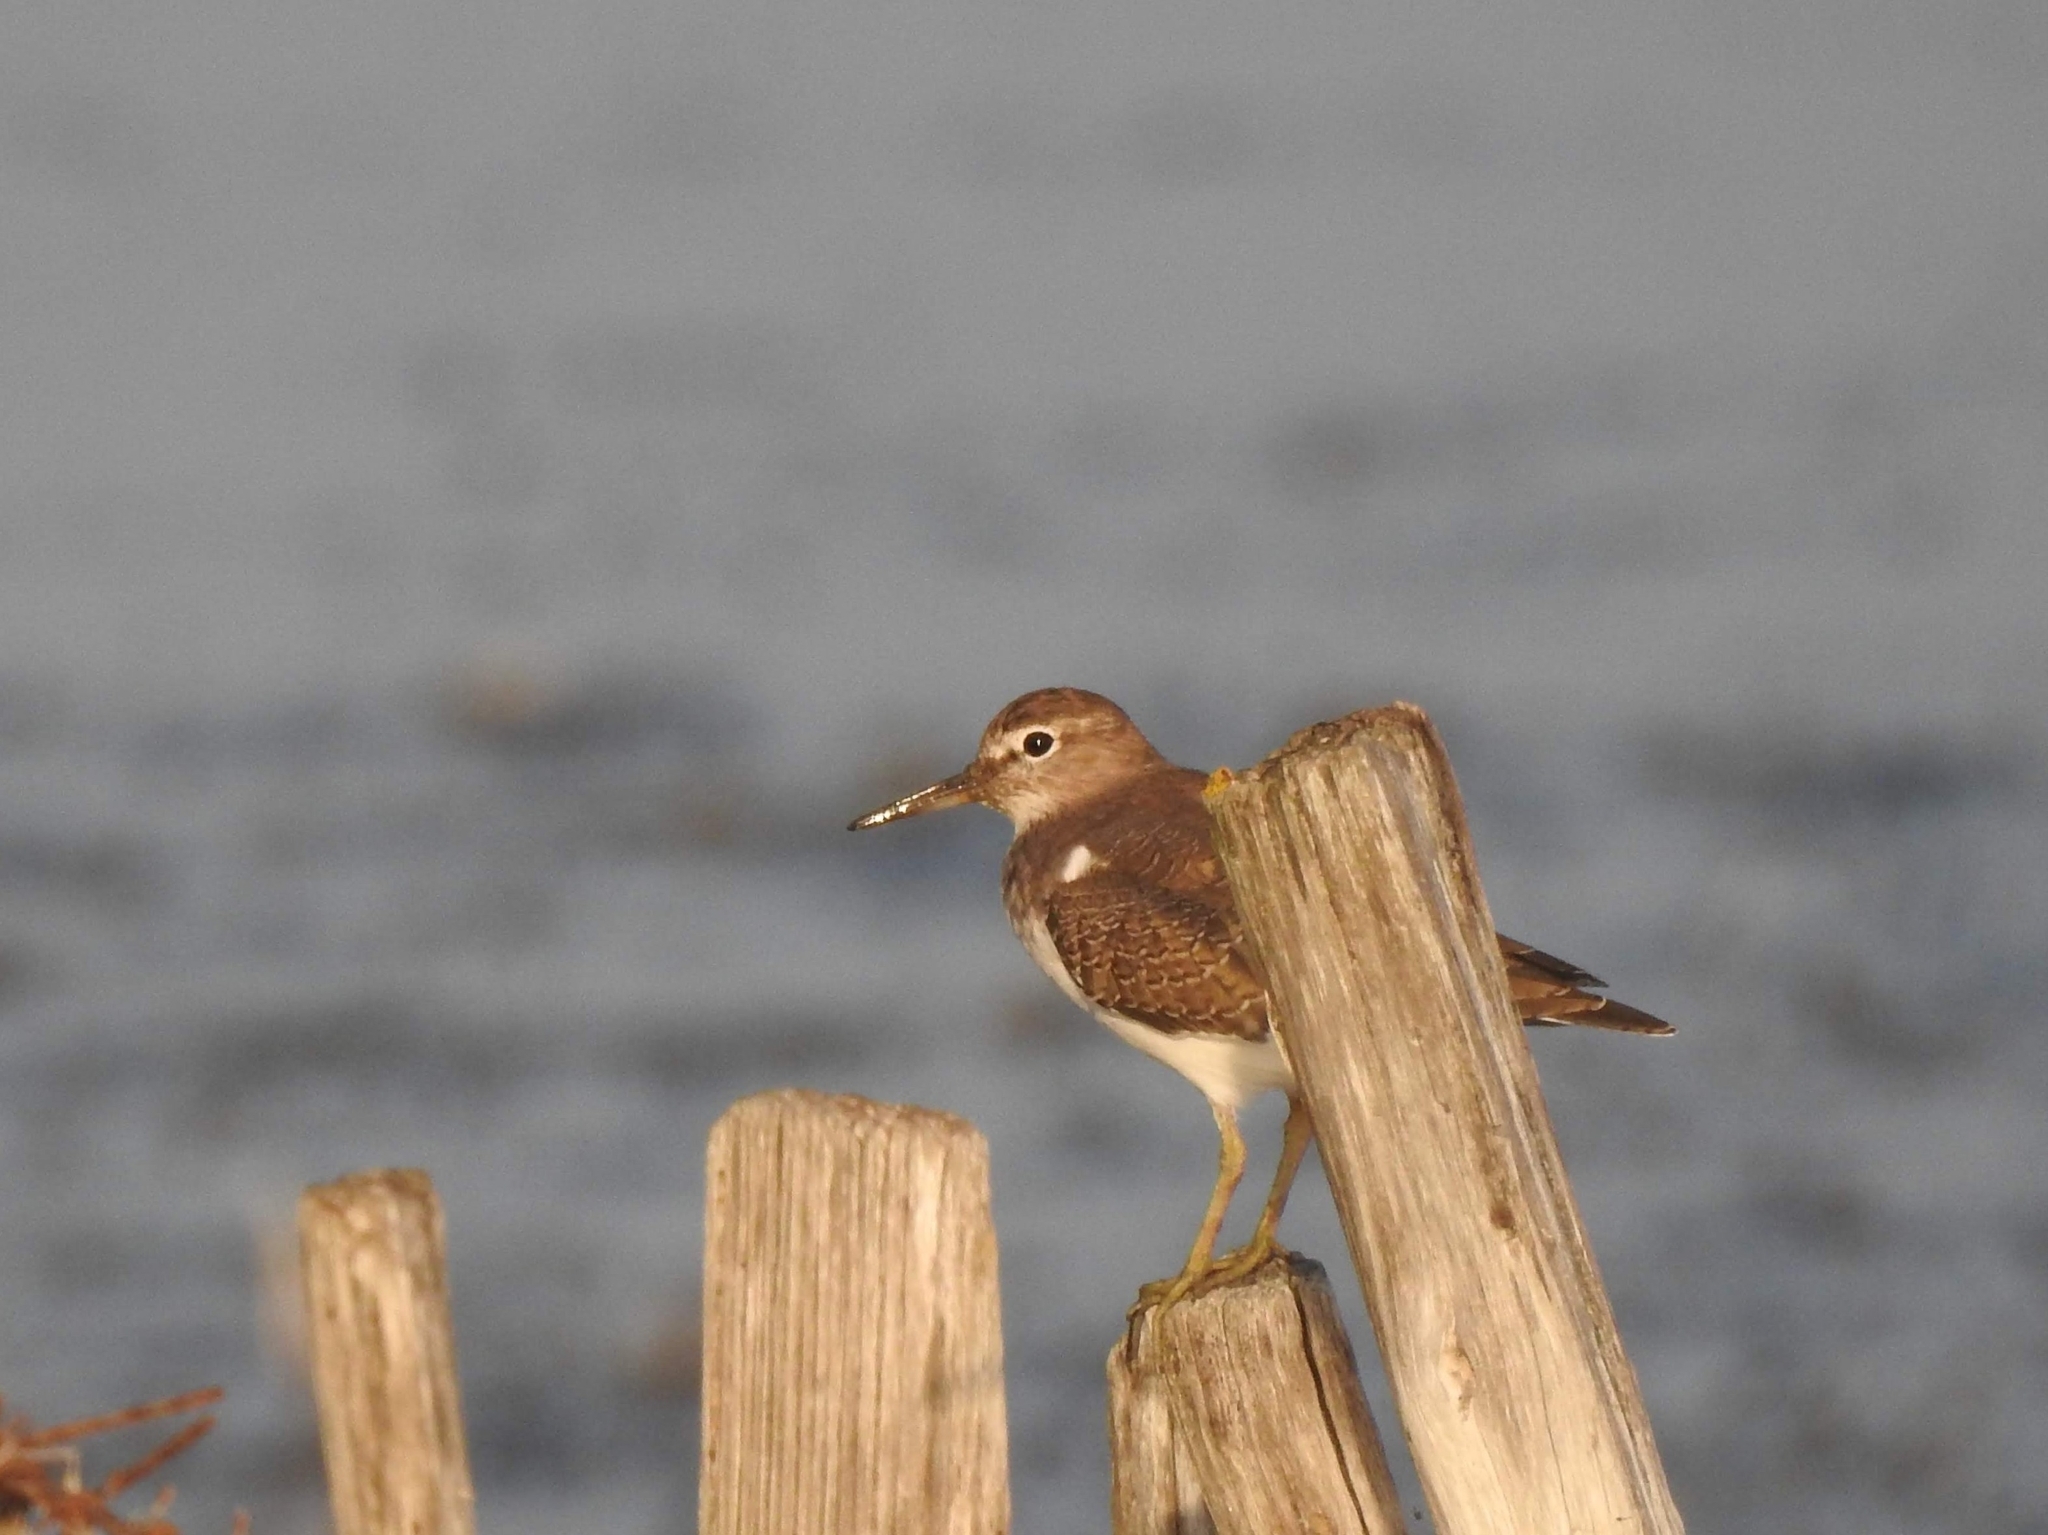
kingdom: Animalia
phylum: Chordata
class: Aves
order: Charadriiformes
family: Scolopacidae
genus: Actitis
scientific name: Actitis hypoleucos
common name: Common sandpiper
